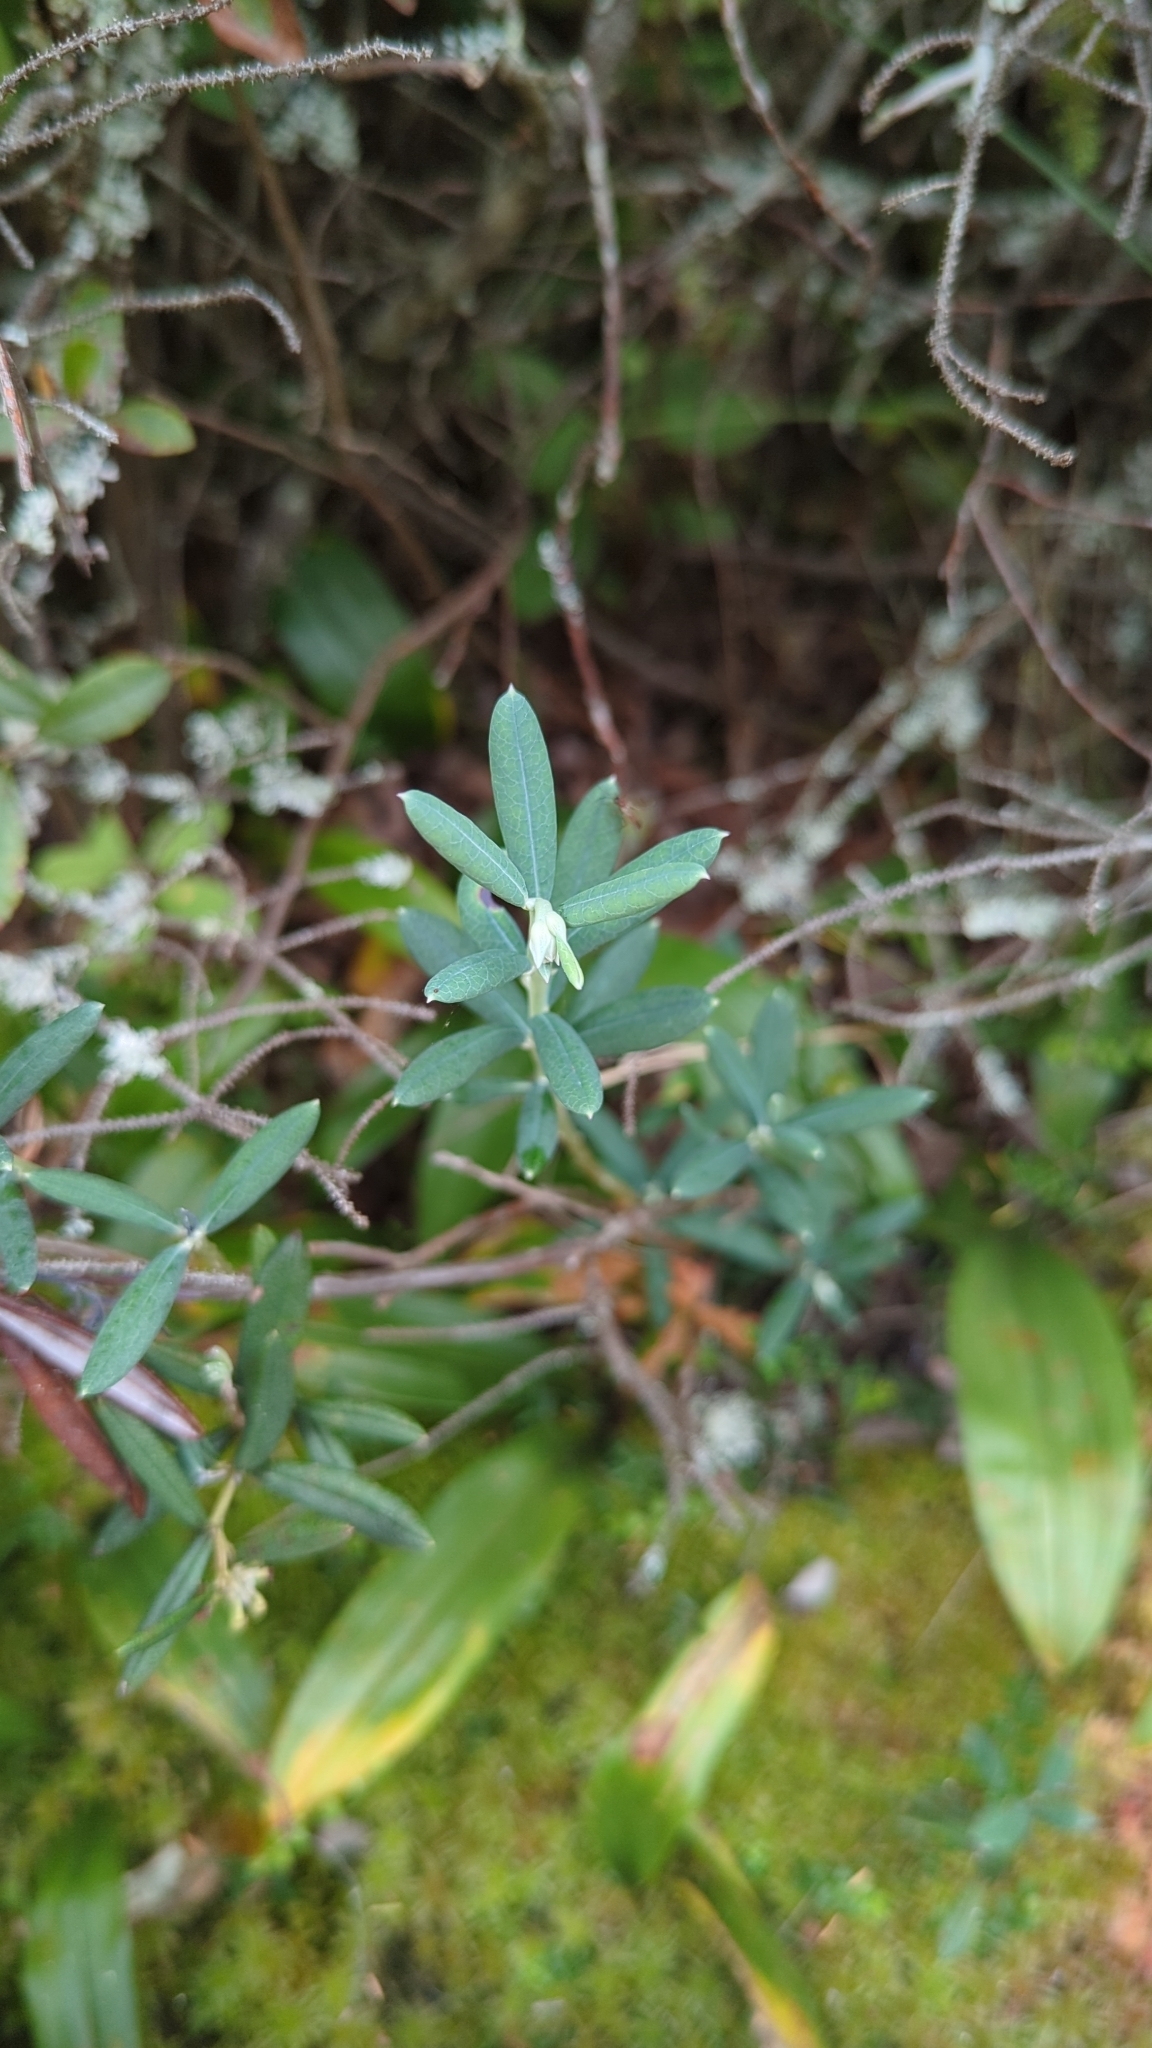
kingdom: Plantae
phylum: Tracheophyta
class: Magnoliopsida
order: Ericales
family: Ericaceae
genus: Andromeda
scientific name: Andromeda polifolia
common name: Bog-rosemary
